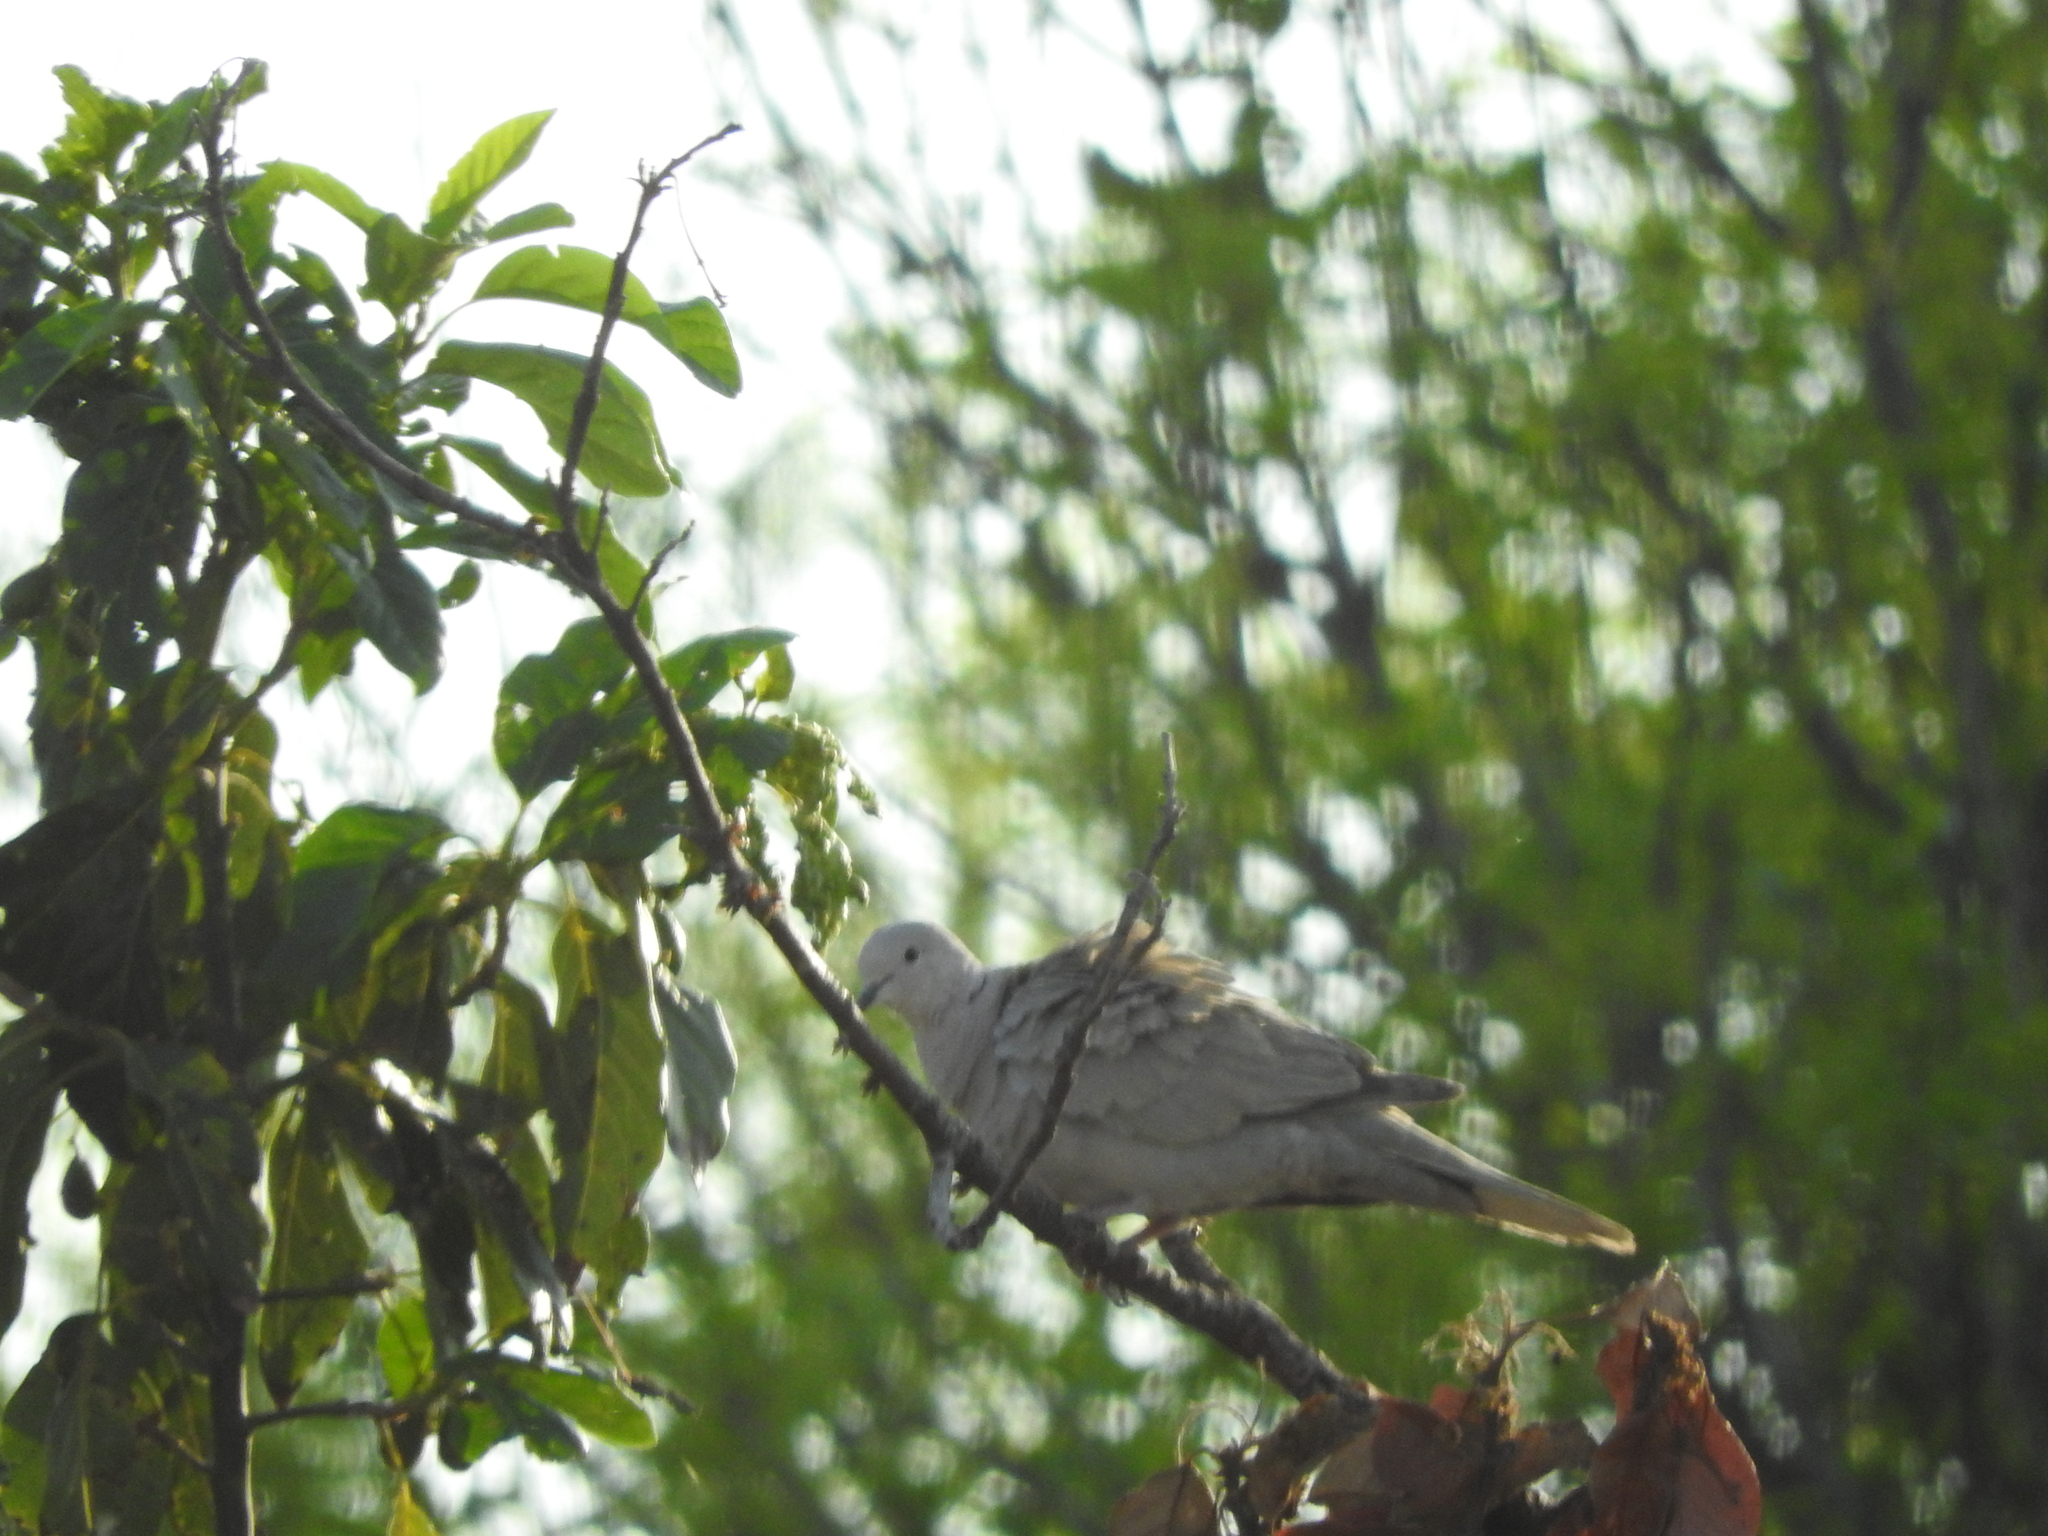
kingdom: Animalia
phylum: Chordata
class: Aves
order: Columbiformes
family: Columbidae
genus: Streptopelia
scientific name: Streptopelia decaocto
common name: Eurasian collared dove
